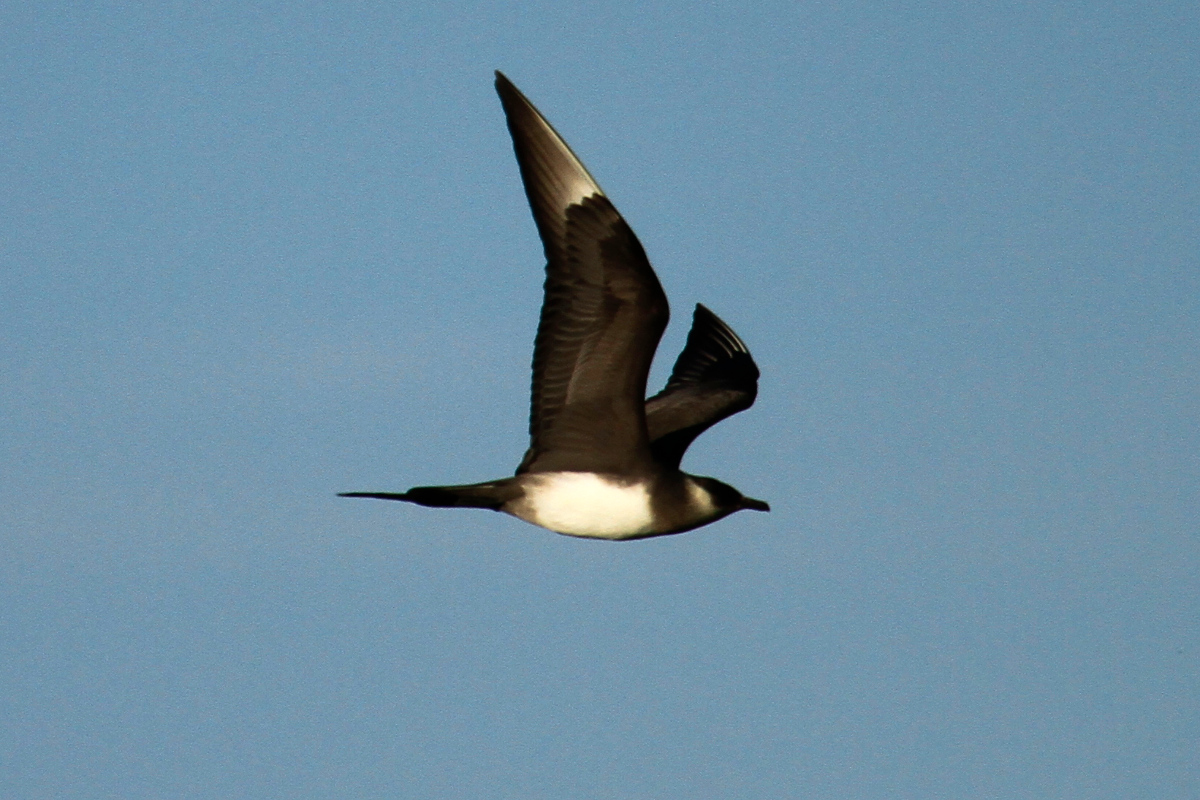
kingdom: Animalia
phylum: Chordata
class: Aves
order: Charadriiformes
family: Stercorariidae
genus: Stercorarius
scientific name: Stercorarius parasiticus
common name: Parasitic jaeger
